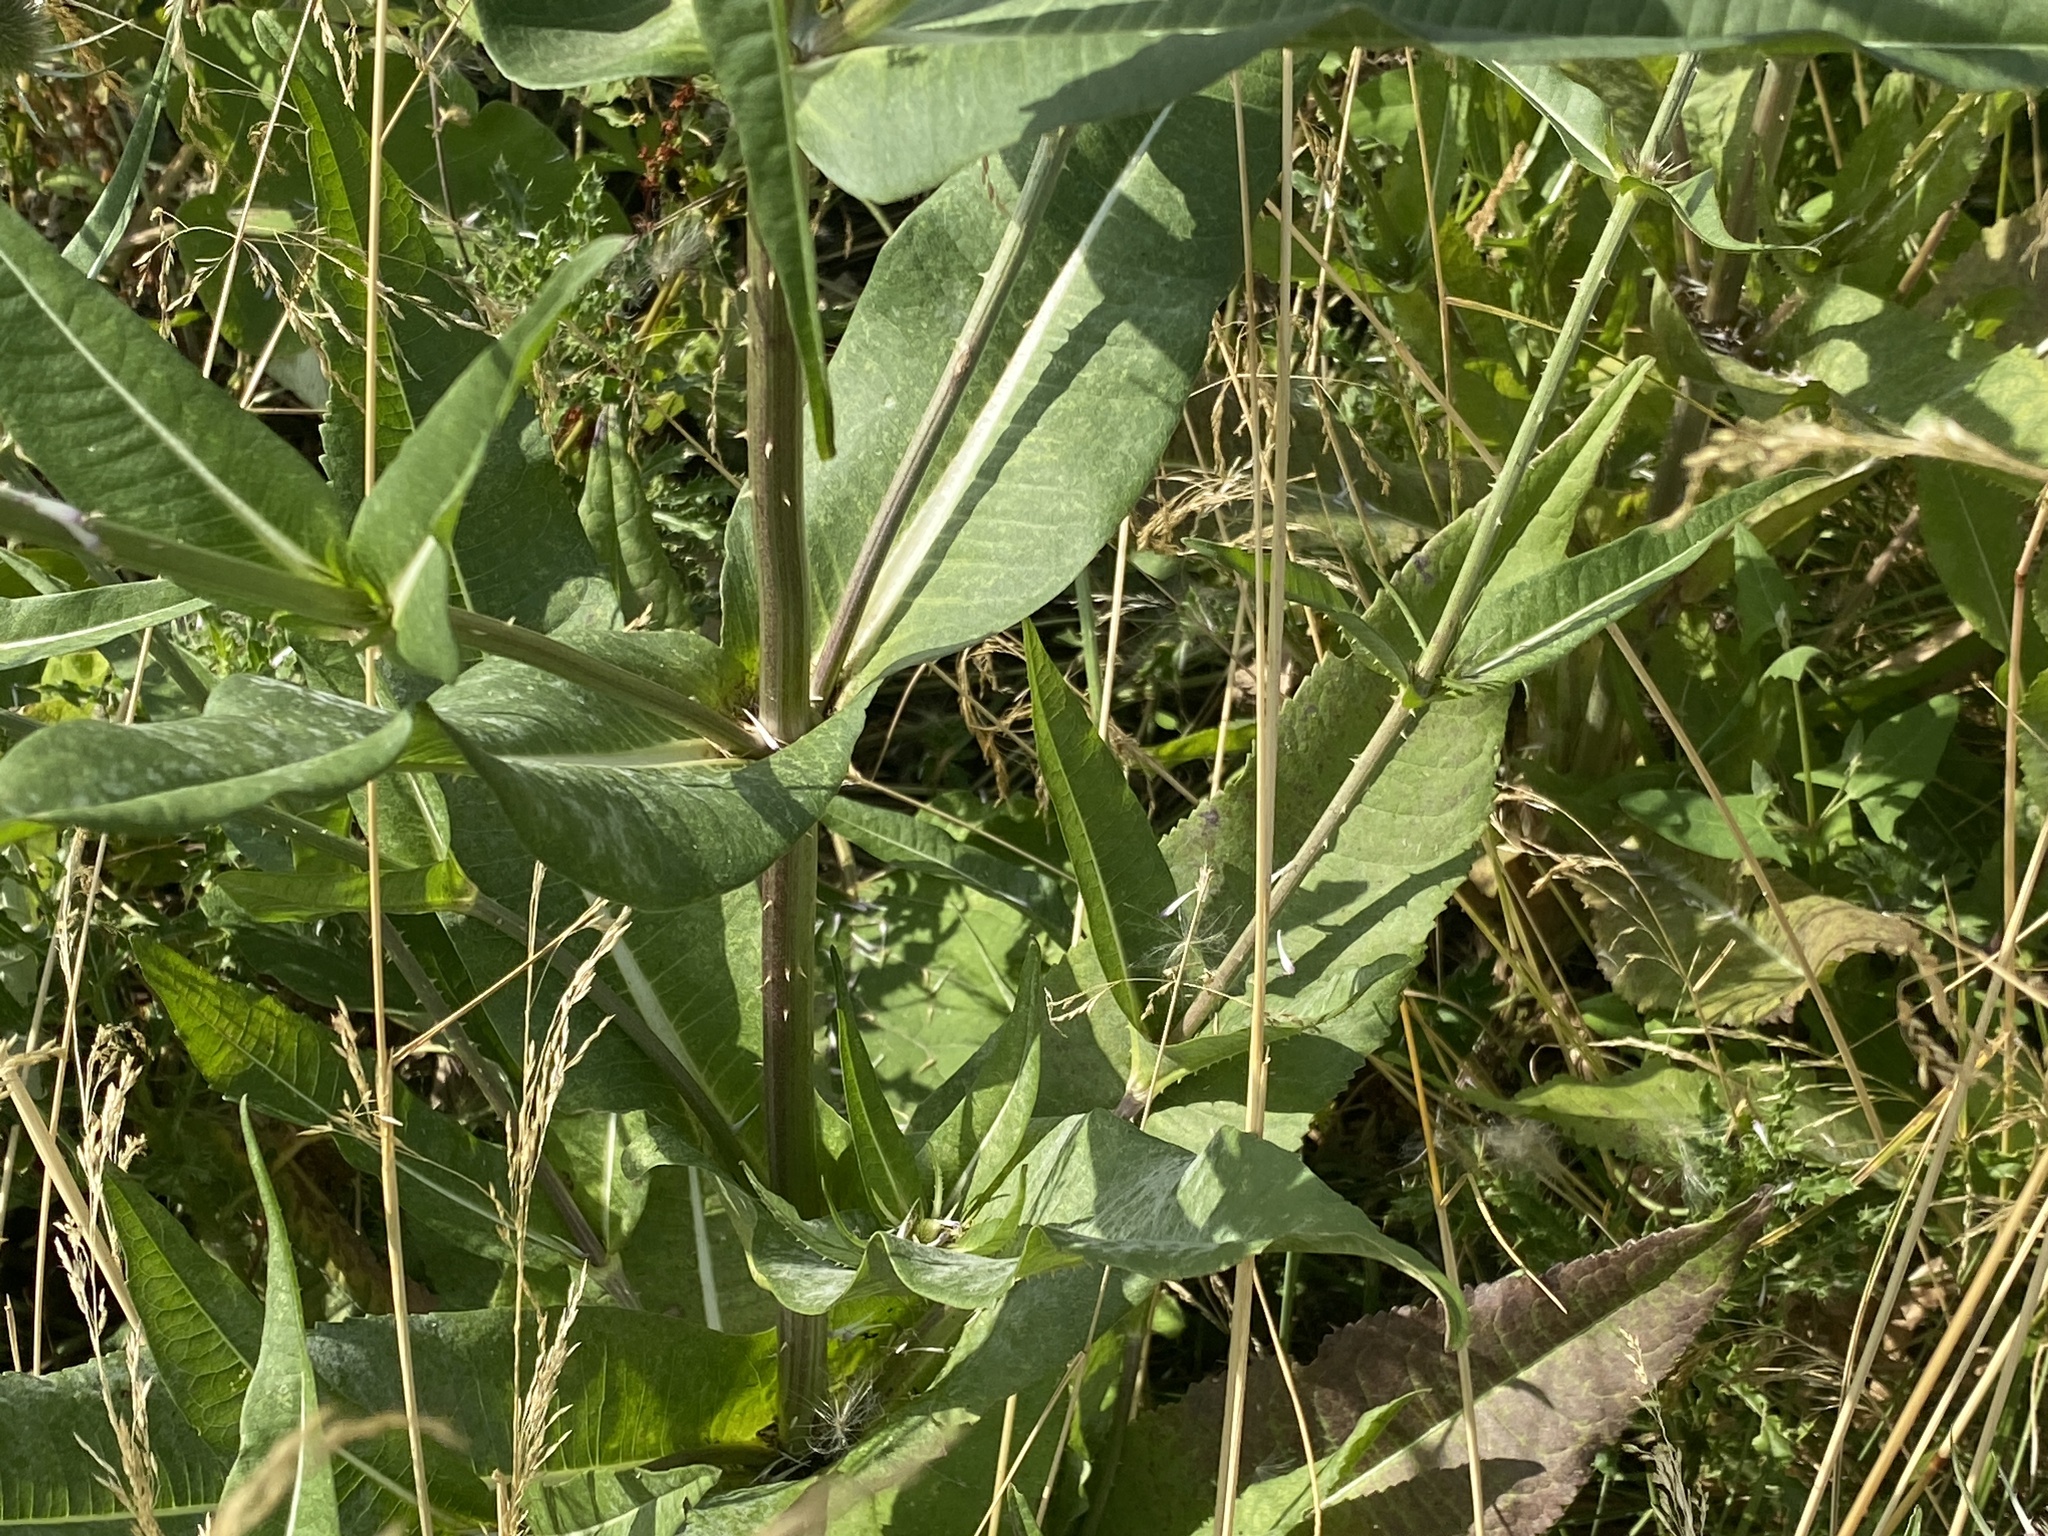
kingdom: Plantae
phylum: Tracheophyta
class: Magnoliopsida
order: Dipsacales
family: Caprifoliaceae
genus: Dipsacus
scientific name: Dipsacus fullonum
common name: Teasel
